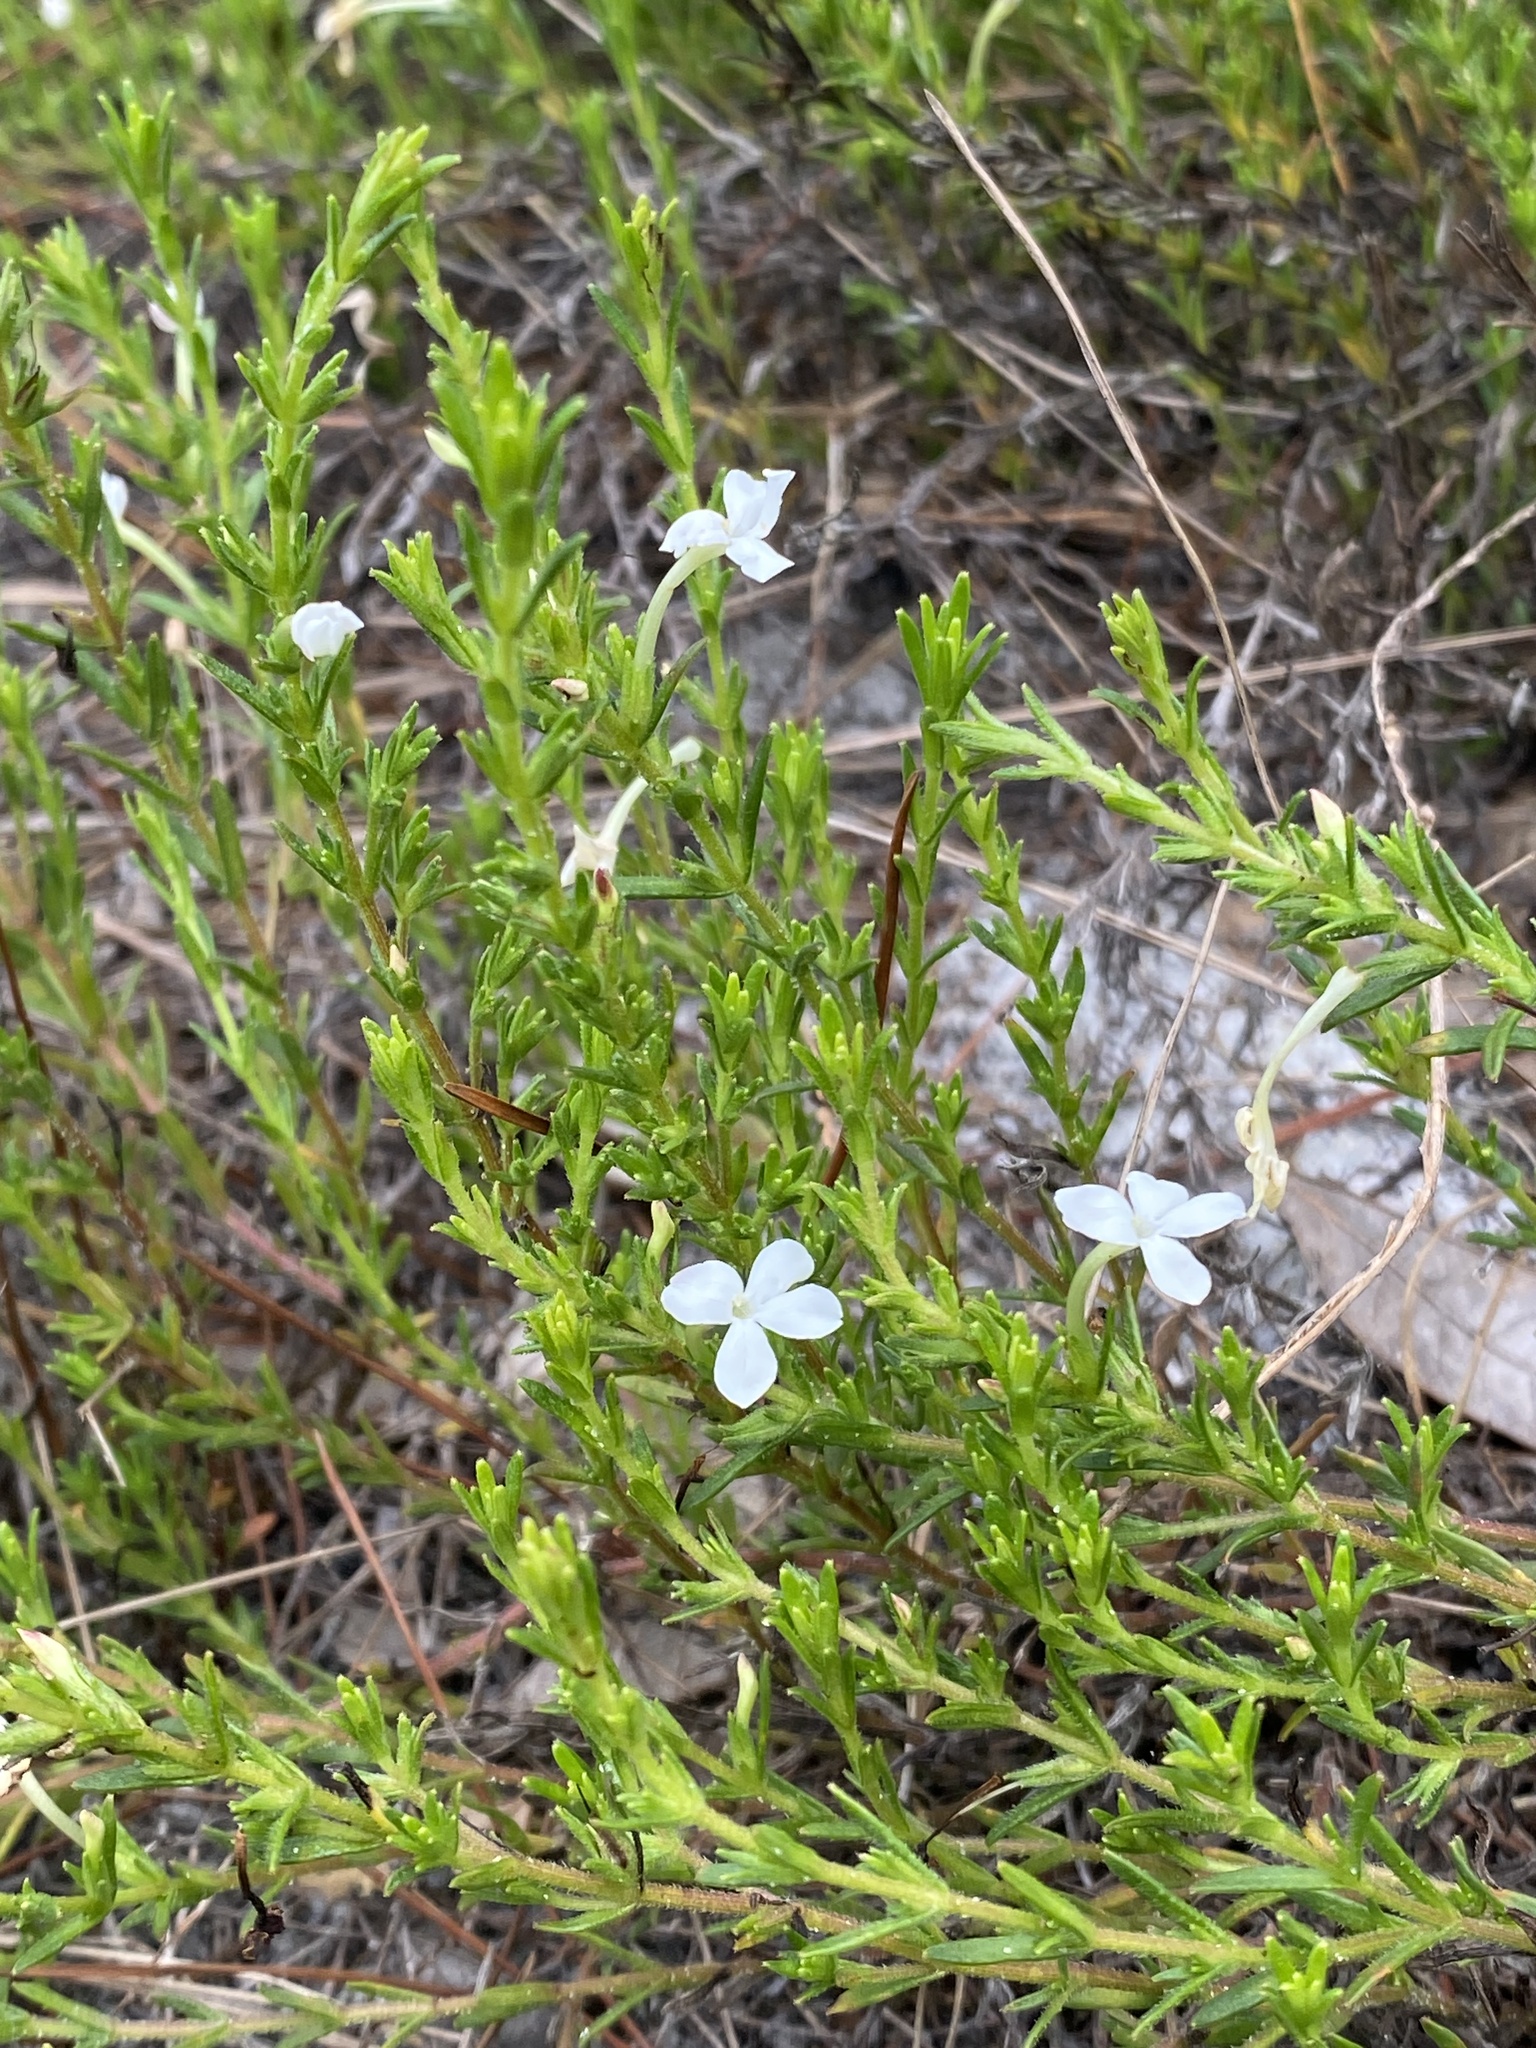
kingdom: Plantae
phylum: Tracheophyta
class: Magnoliopsida
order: Lamiales
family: Plantaginaceae
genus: Gratiola
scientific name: Gratiola hispida
